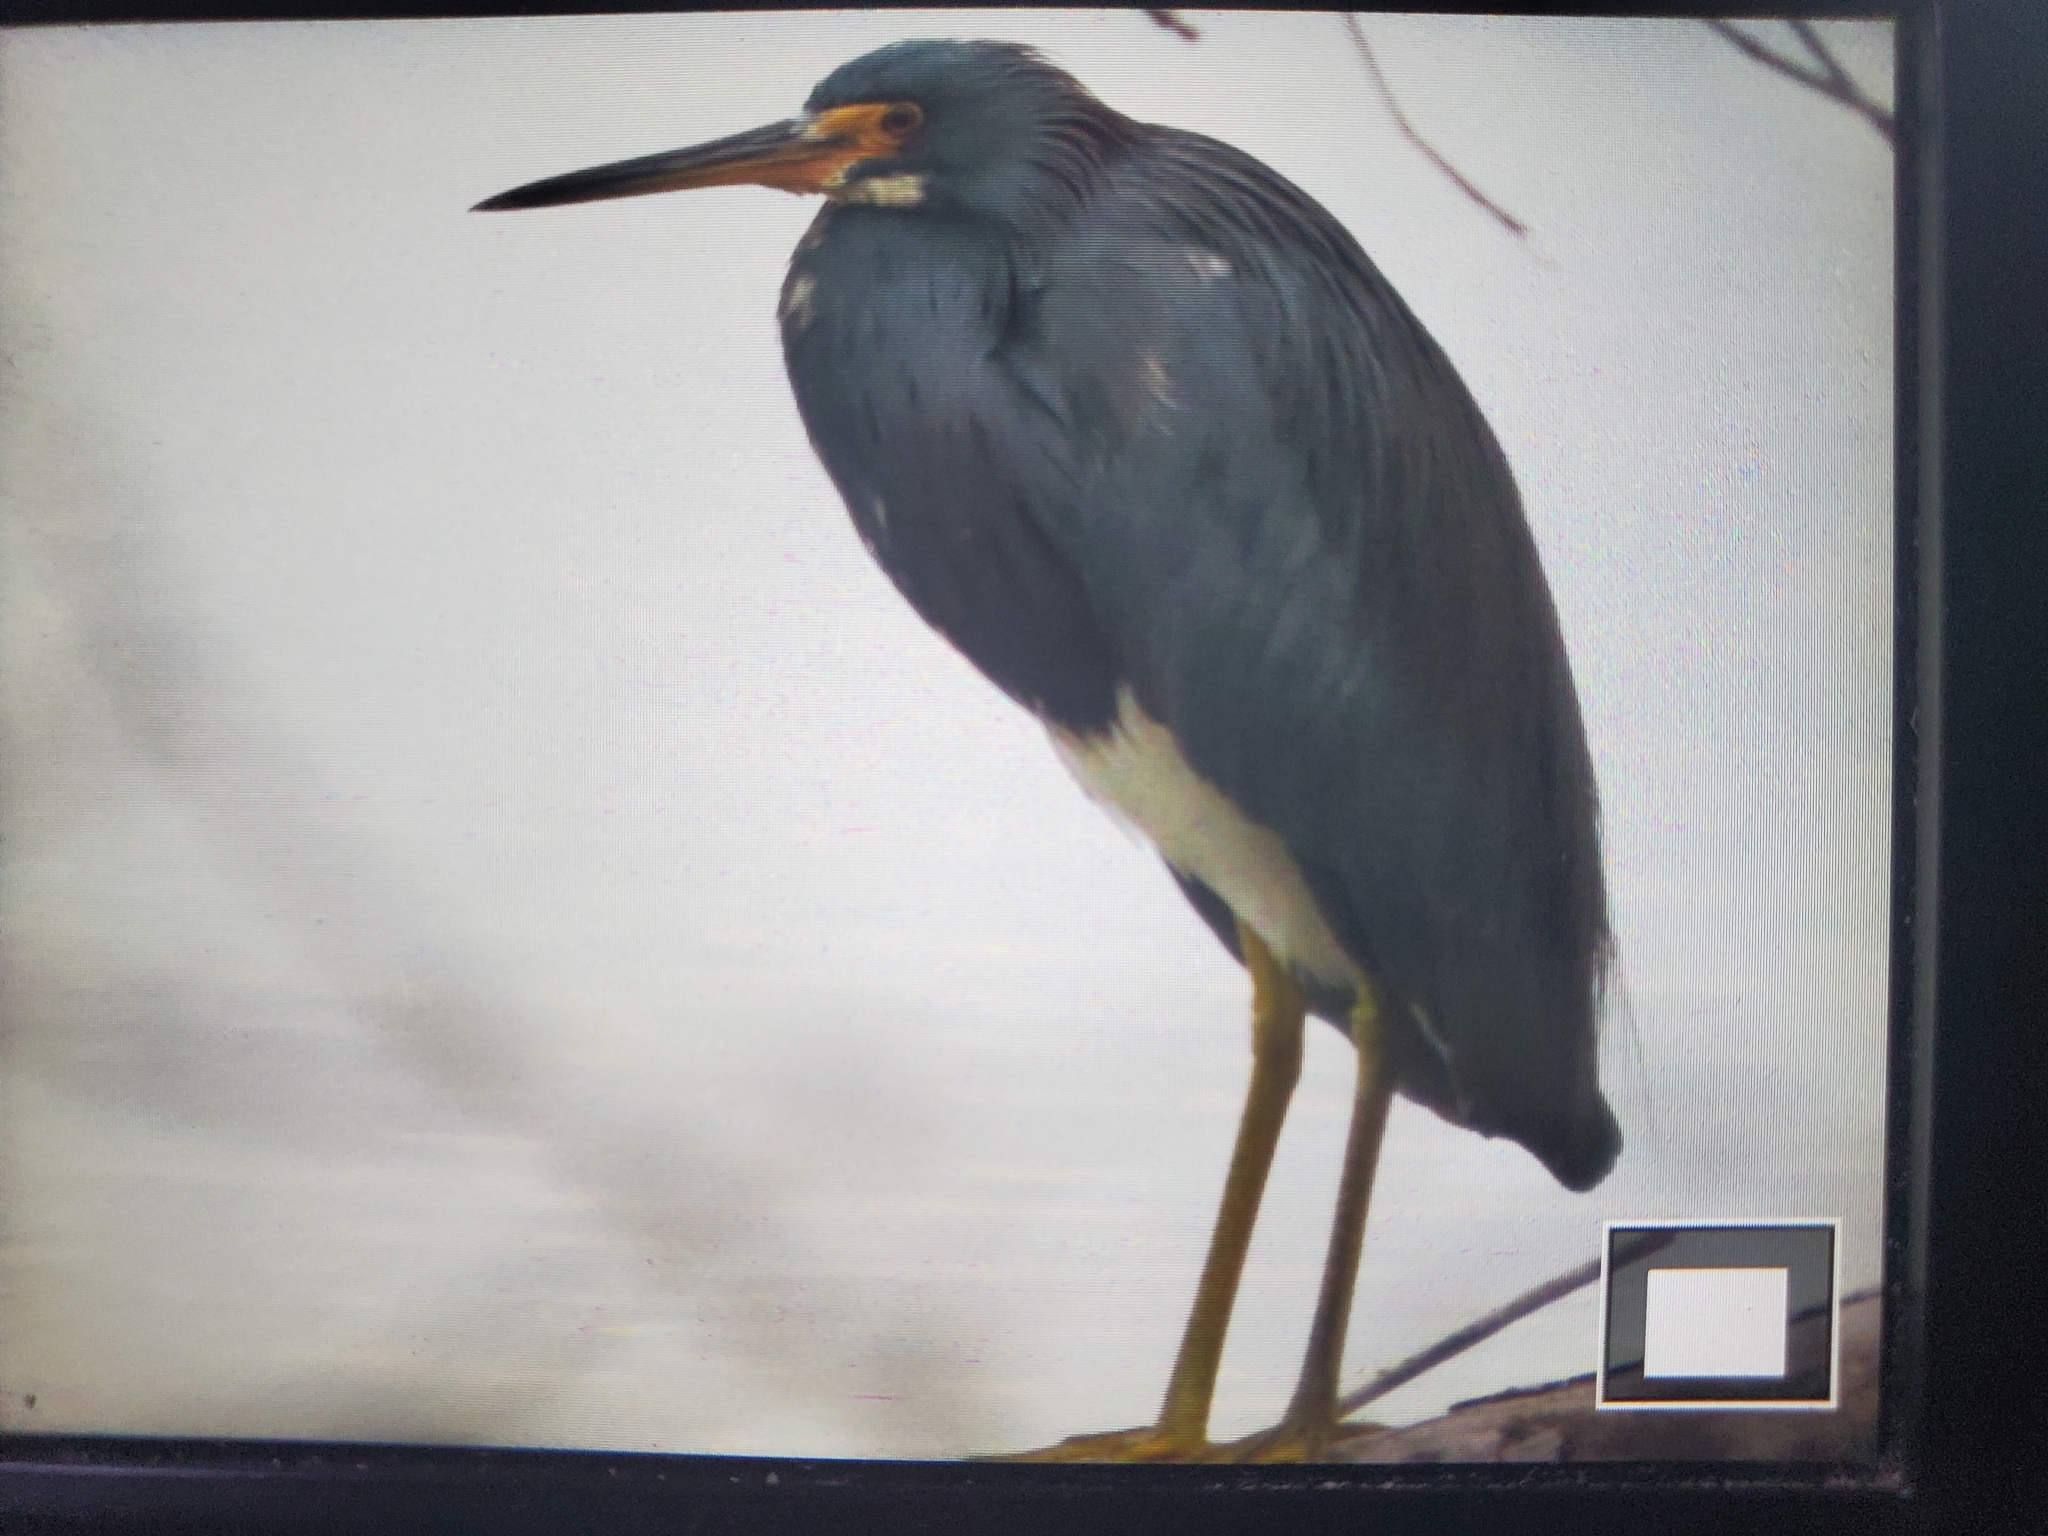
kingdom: Animalia
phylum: Chordata
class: Aves
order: Pelecaniformes
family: Ardeidae
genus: Egretta
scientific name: Egretta tricolor
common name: Tricolored heron
